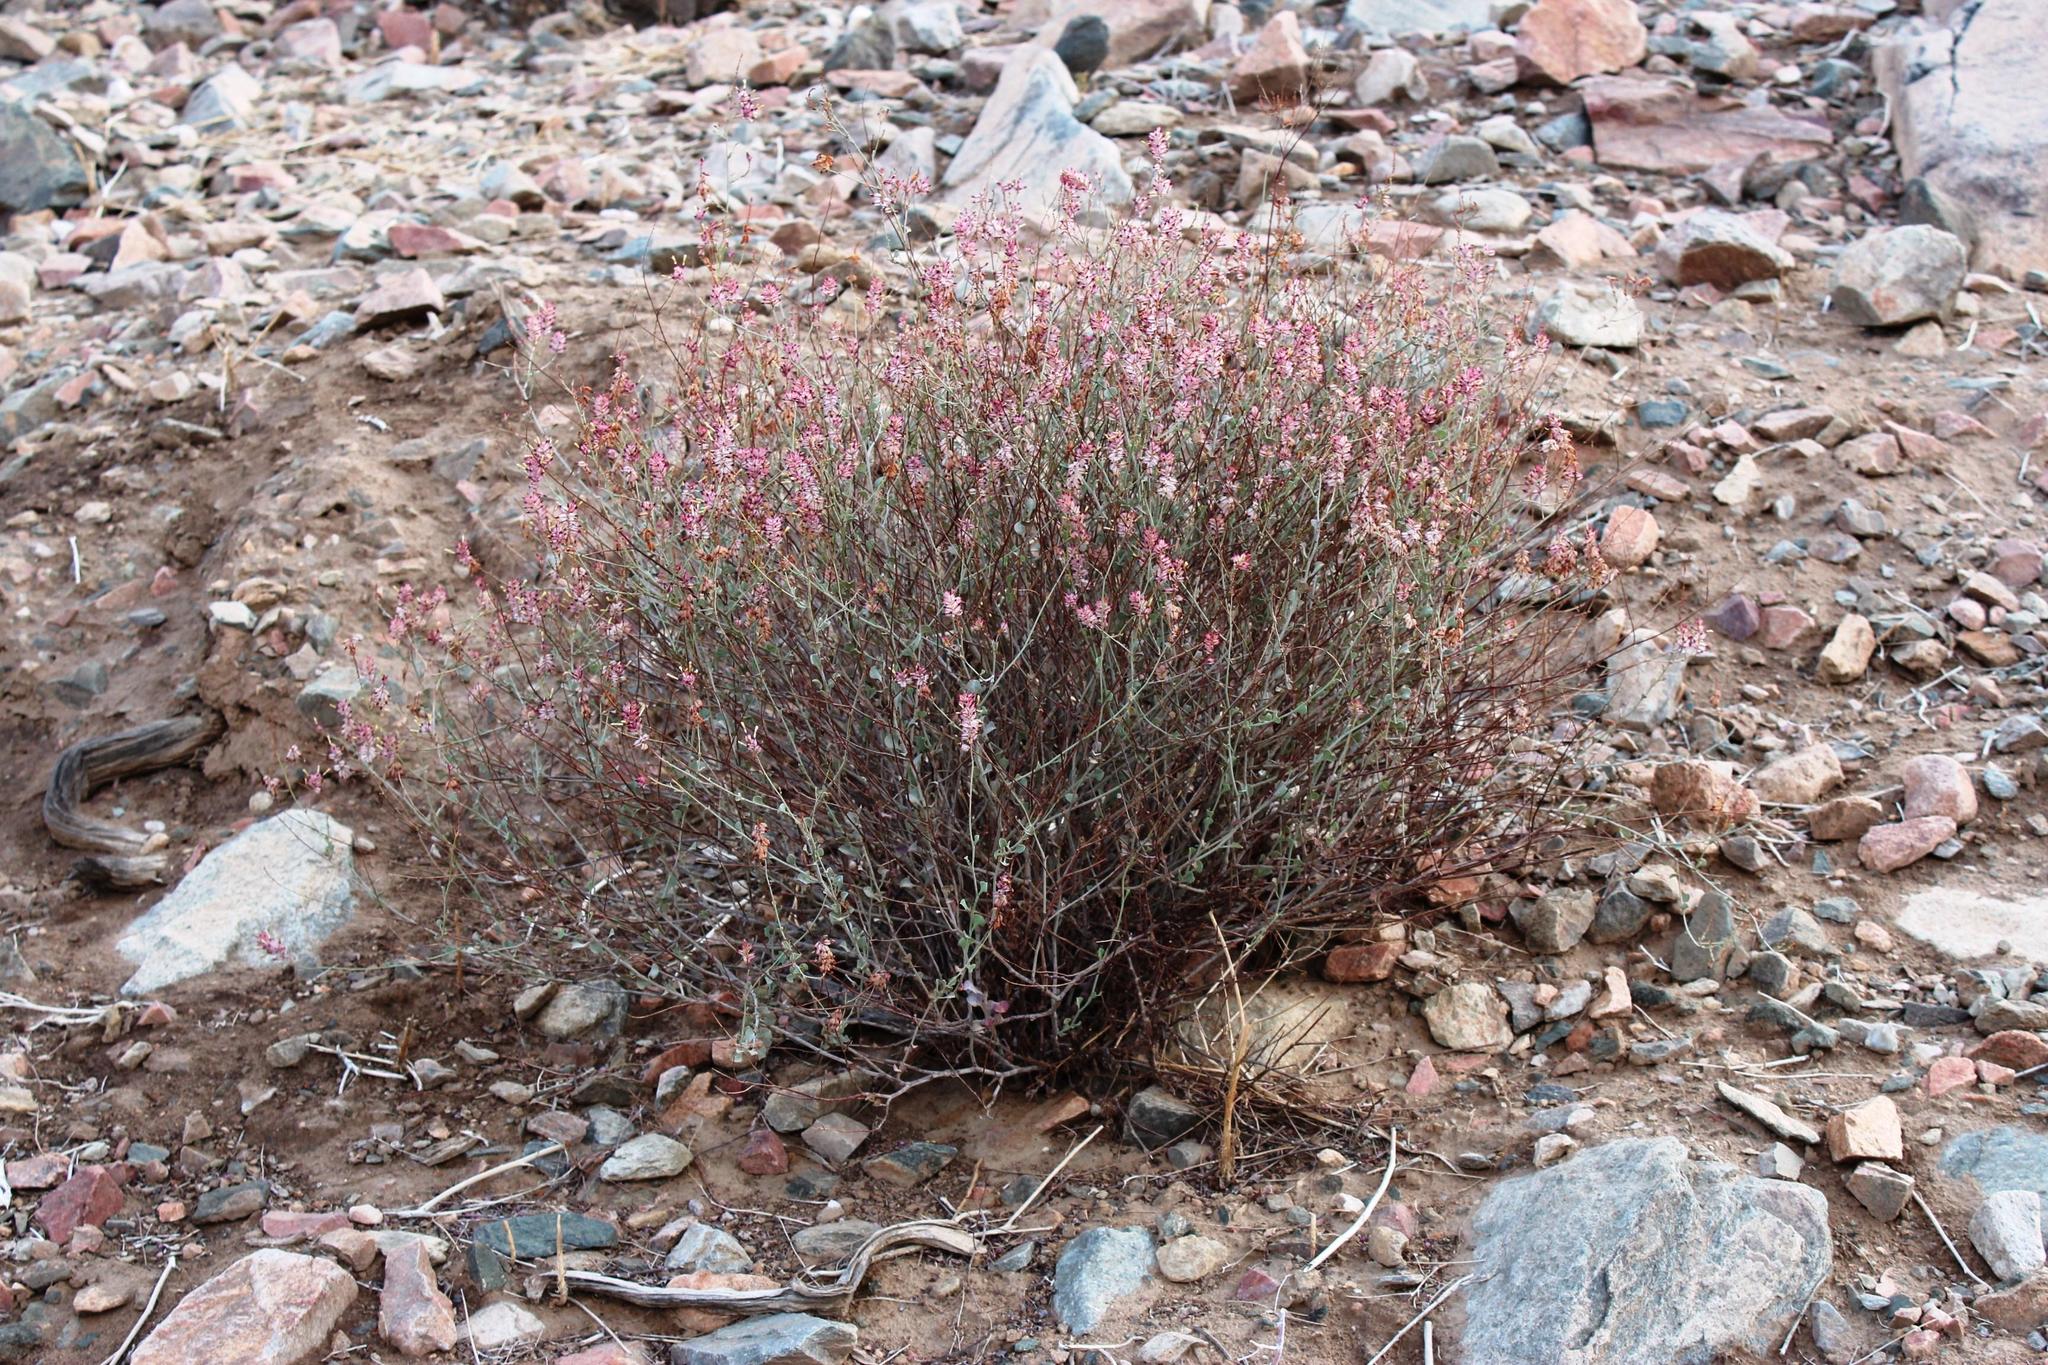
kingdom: Plantae
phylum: Tracheophyta
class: Magnoliopsida
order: Caryophyllales
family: Plumbaginaceae
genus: Dyerophytum
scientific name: Dyerophytum africanum
